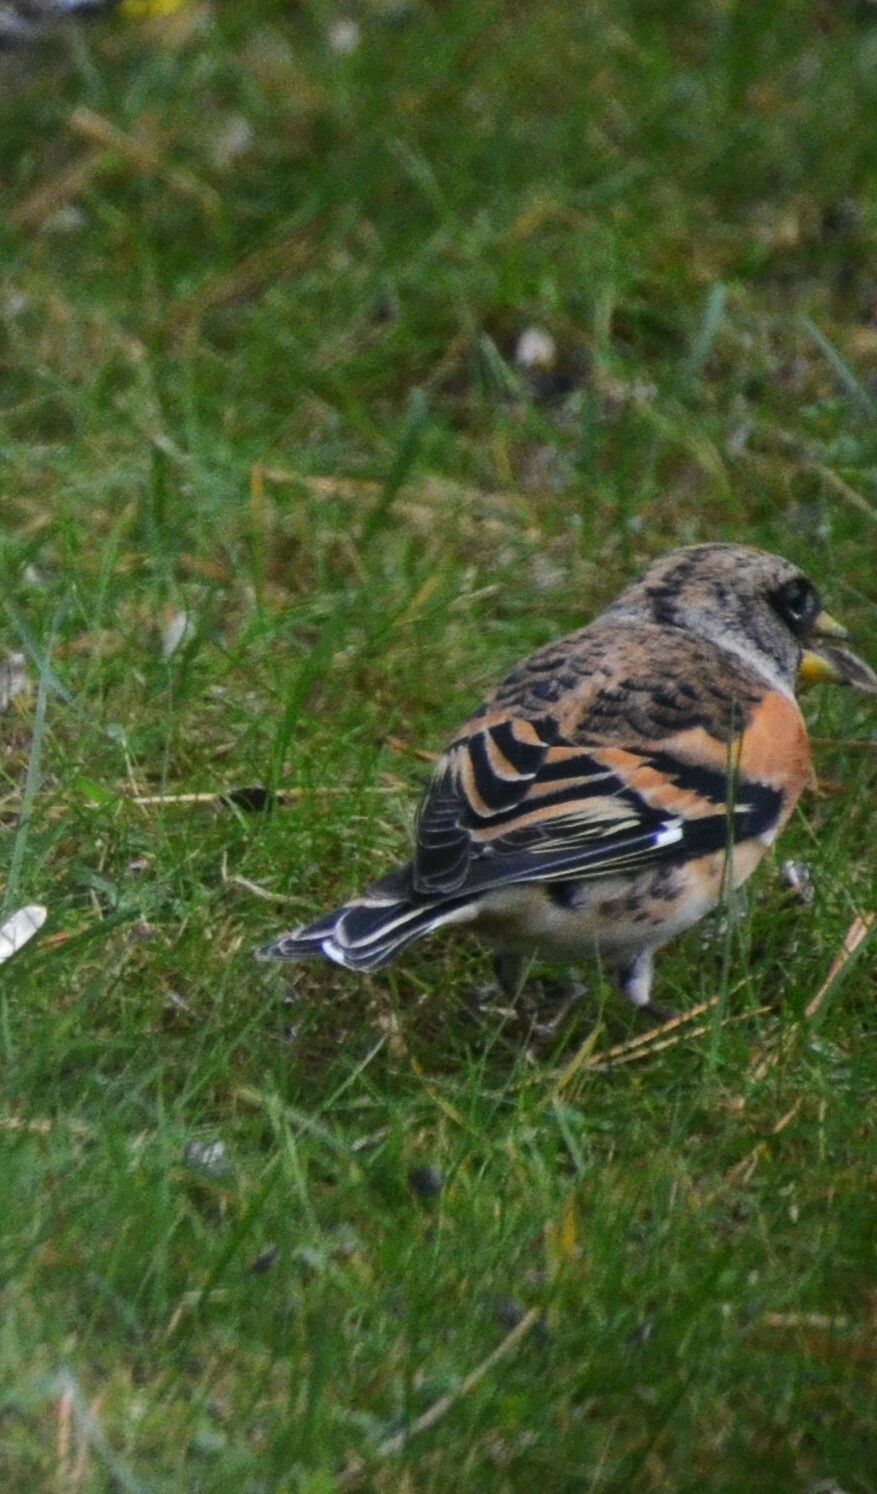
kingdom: Animalia
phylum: Chordata
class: Aves
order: Passeriformes
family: Fringillidae
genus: Fringilla
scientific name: Fringilla montifringilla
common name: Brambling
